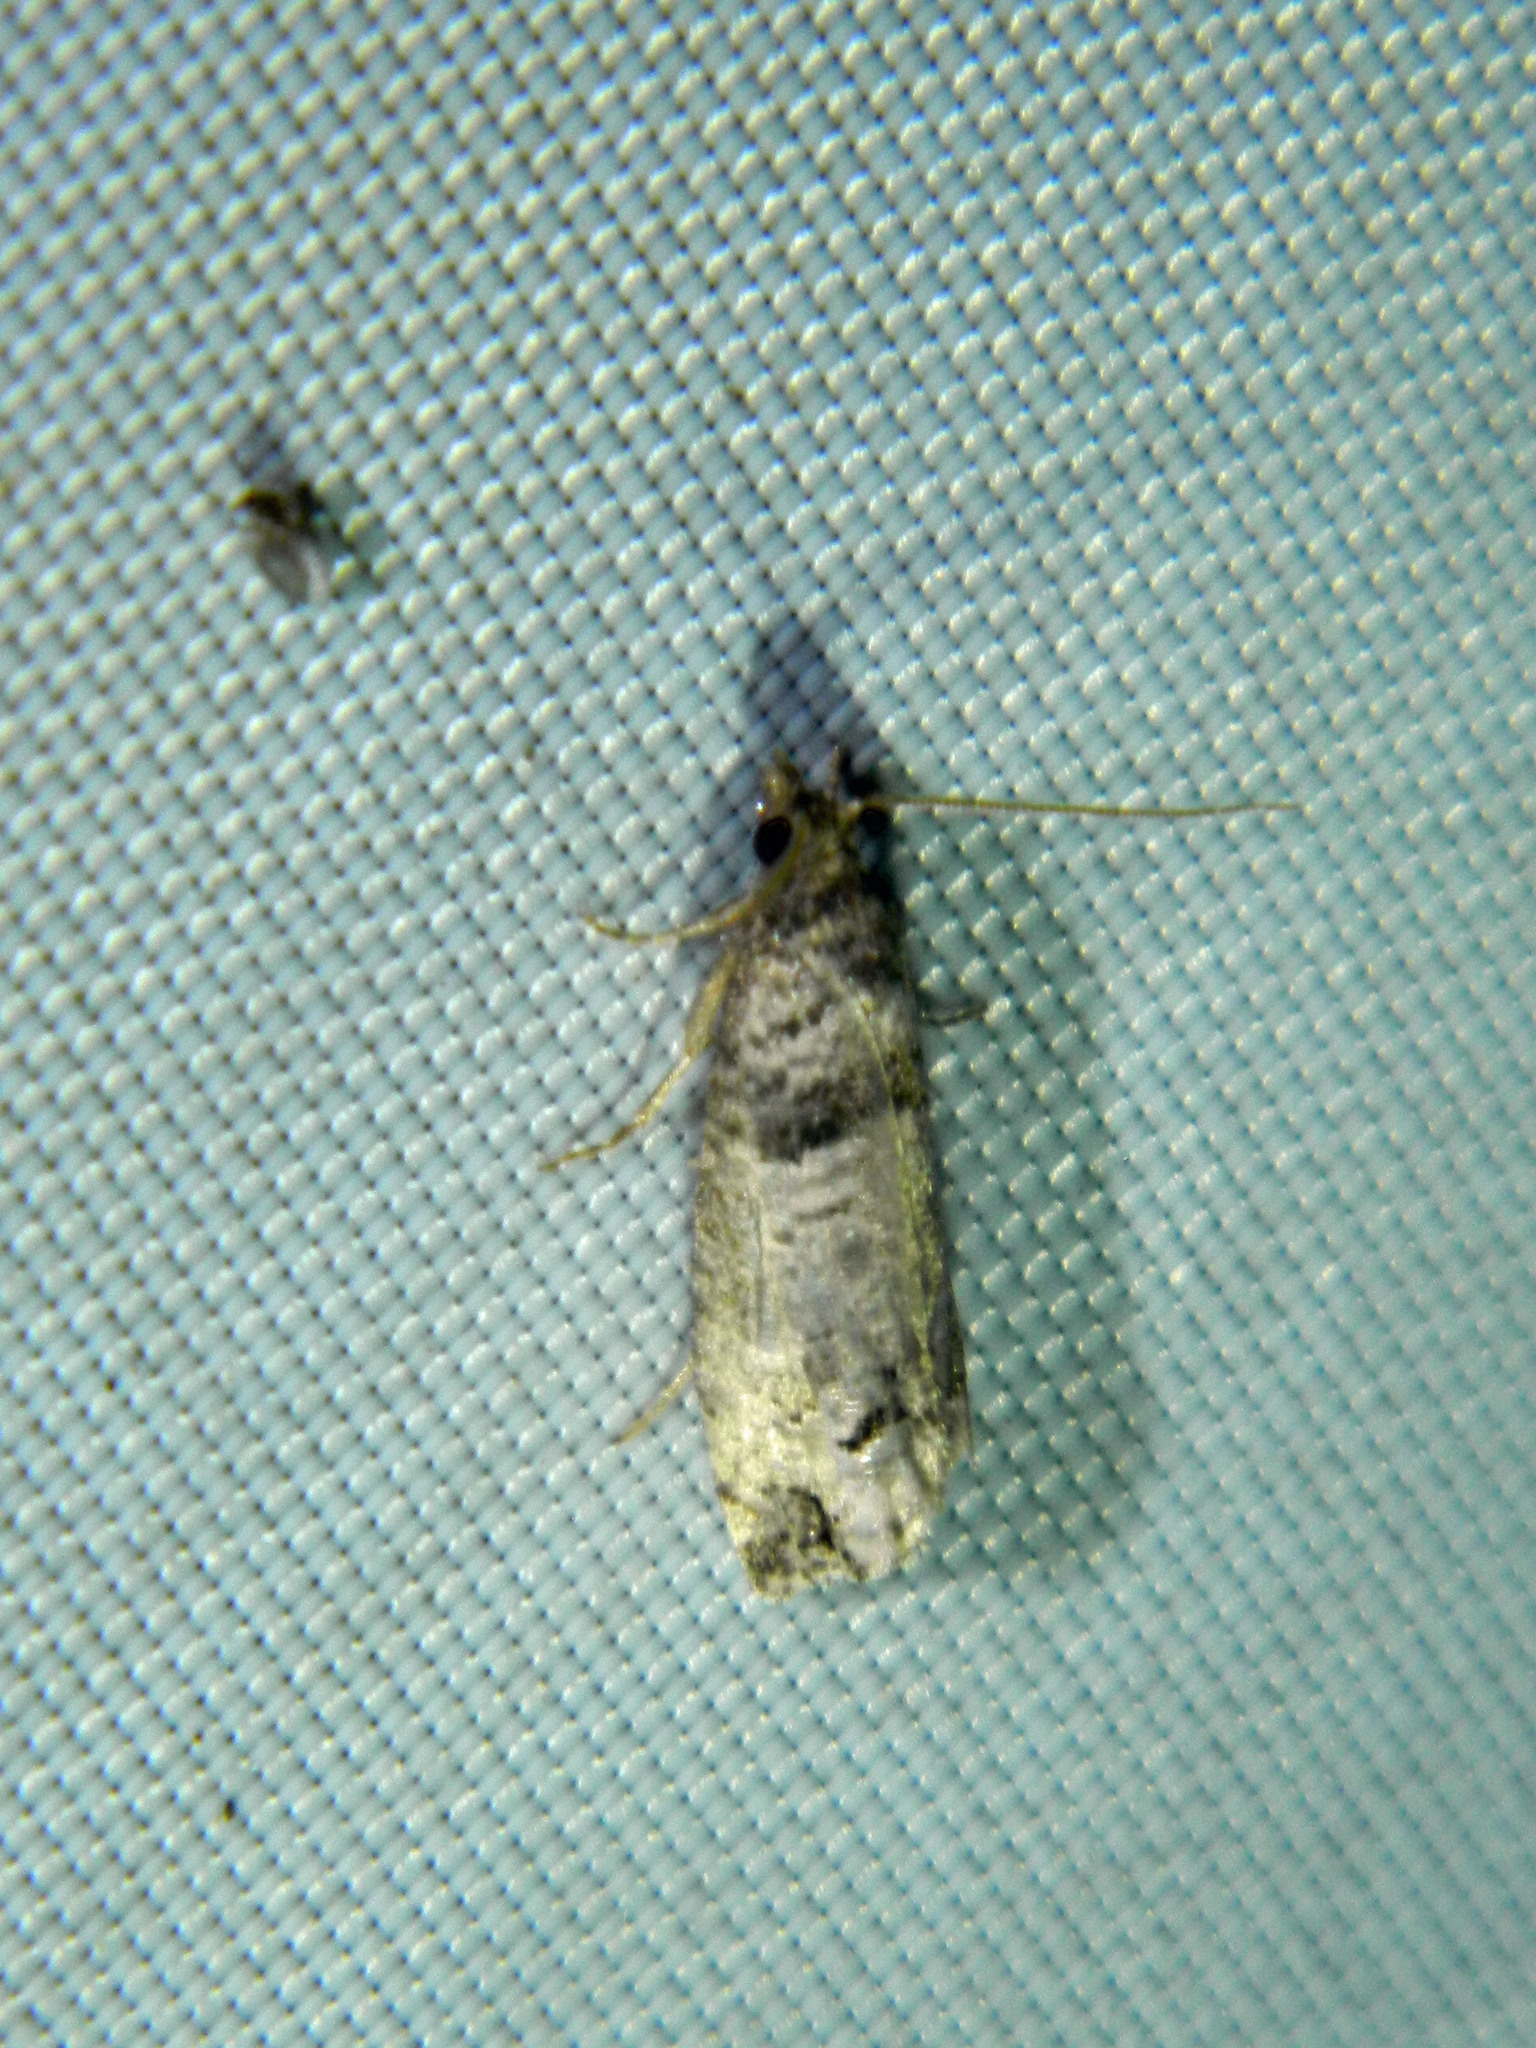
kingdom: Animalia
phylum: Arthropoda
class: Insecta
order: Lepidoptera
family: Tortricidae
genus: Notocelia
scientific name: Notocelia culminana
